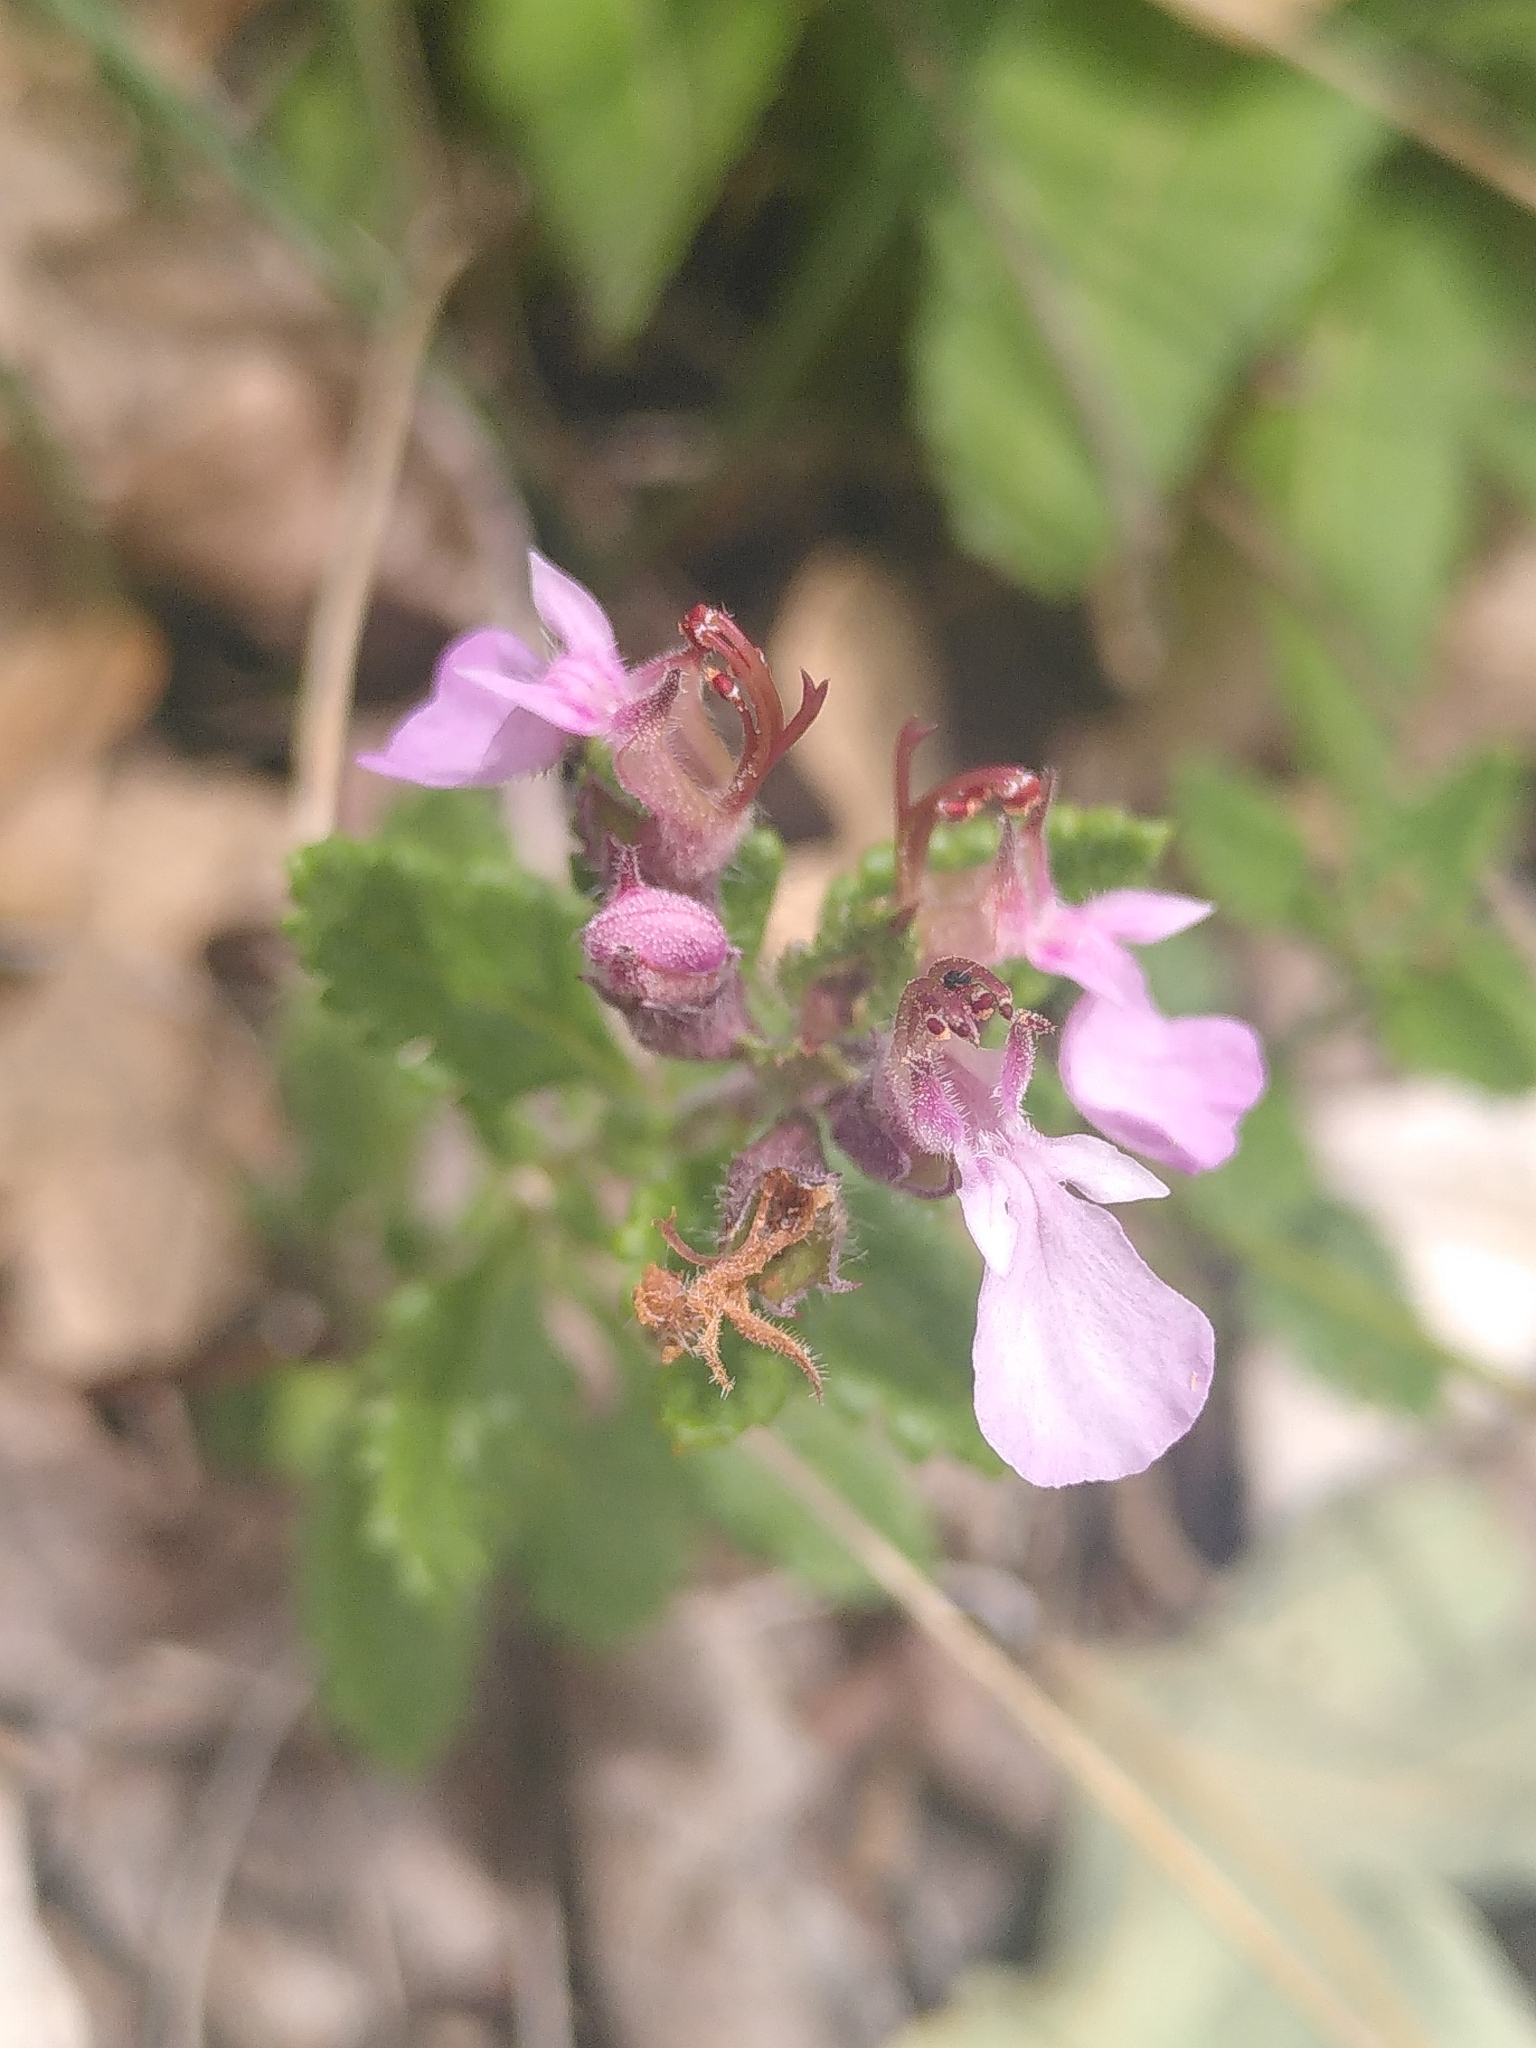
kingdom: Plantae
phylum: Tracheophyta
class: Magnoliopsida
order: Lamiales
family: Lamiaceae
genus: Teucrium
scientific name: Teucrium chamaedrys
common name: Wall germander
